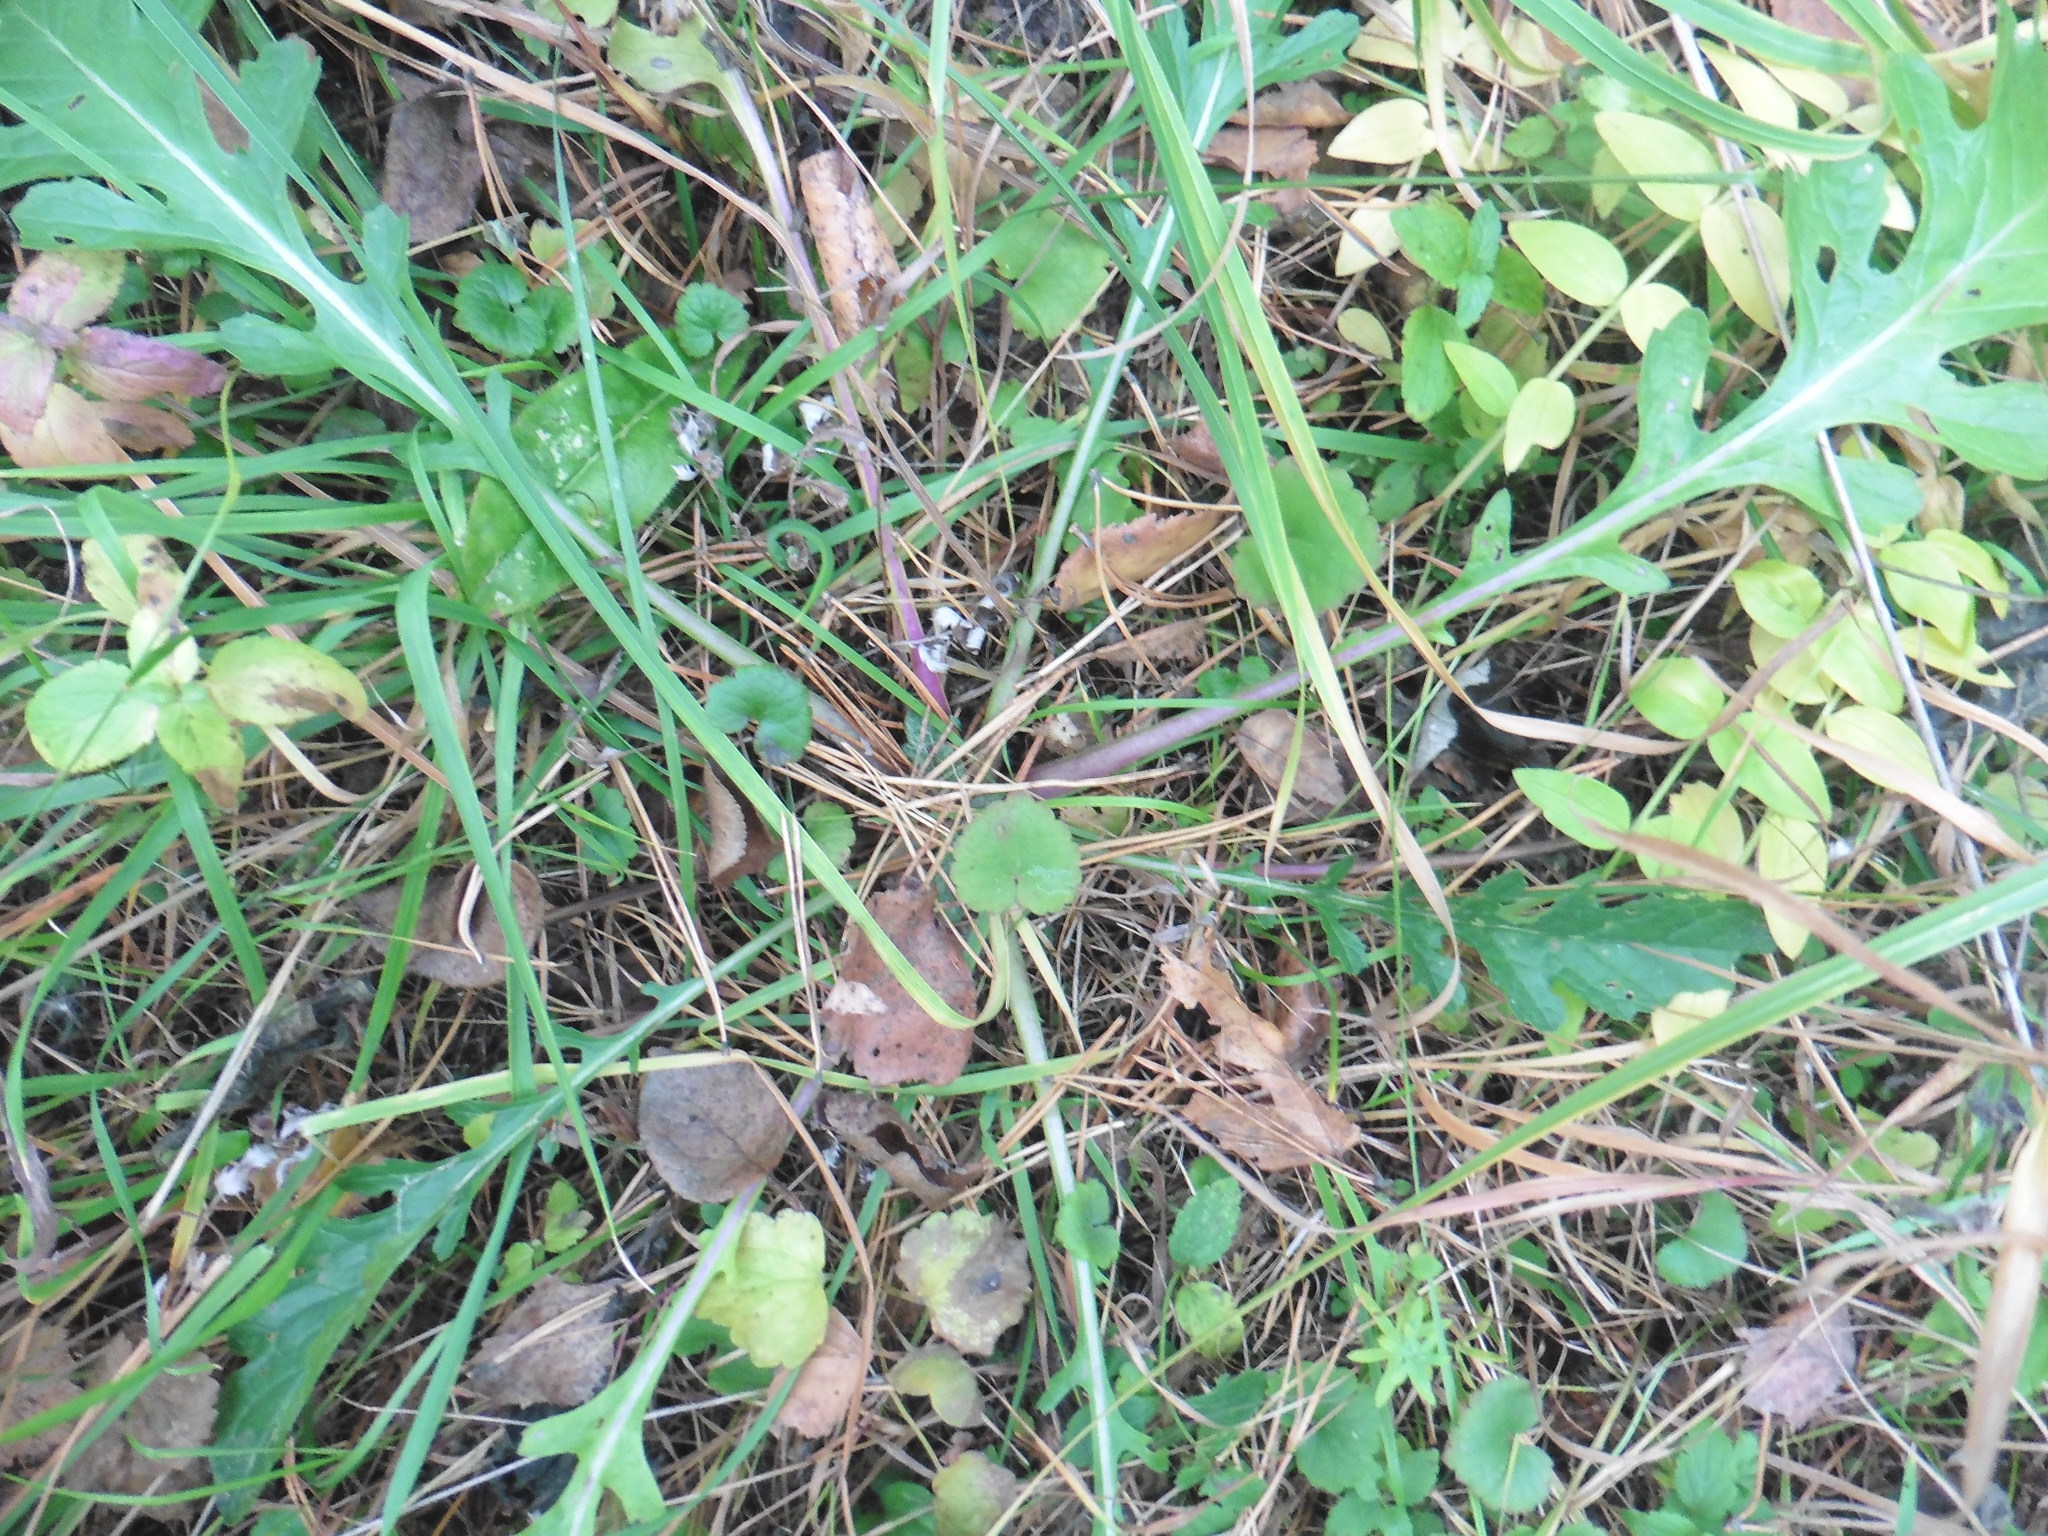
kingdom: Plantae
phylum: Tracheophyta
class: Magnoliopsida
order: Asterales
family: Asteraceae
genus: Jacobaea
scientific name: Jacobaea vulgaris
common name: Stinking willie
